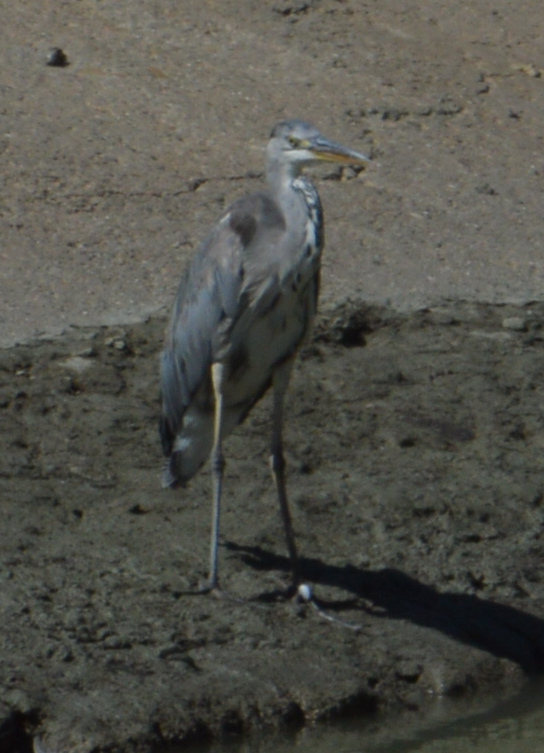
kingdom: Animalia
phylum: Chordata
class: Aves
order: Pelecaniformes
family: Ardeidae
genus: Ardea
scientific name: Ardea cinerea
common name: Grey heron
